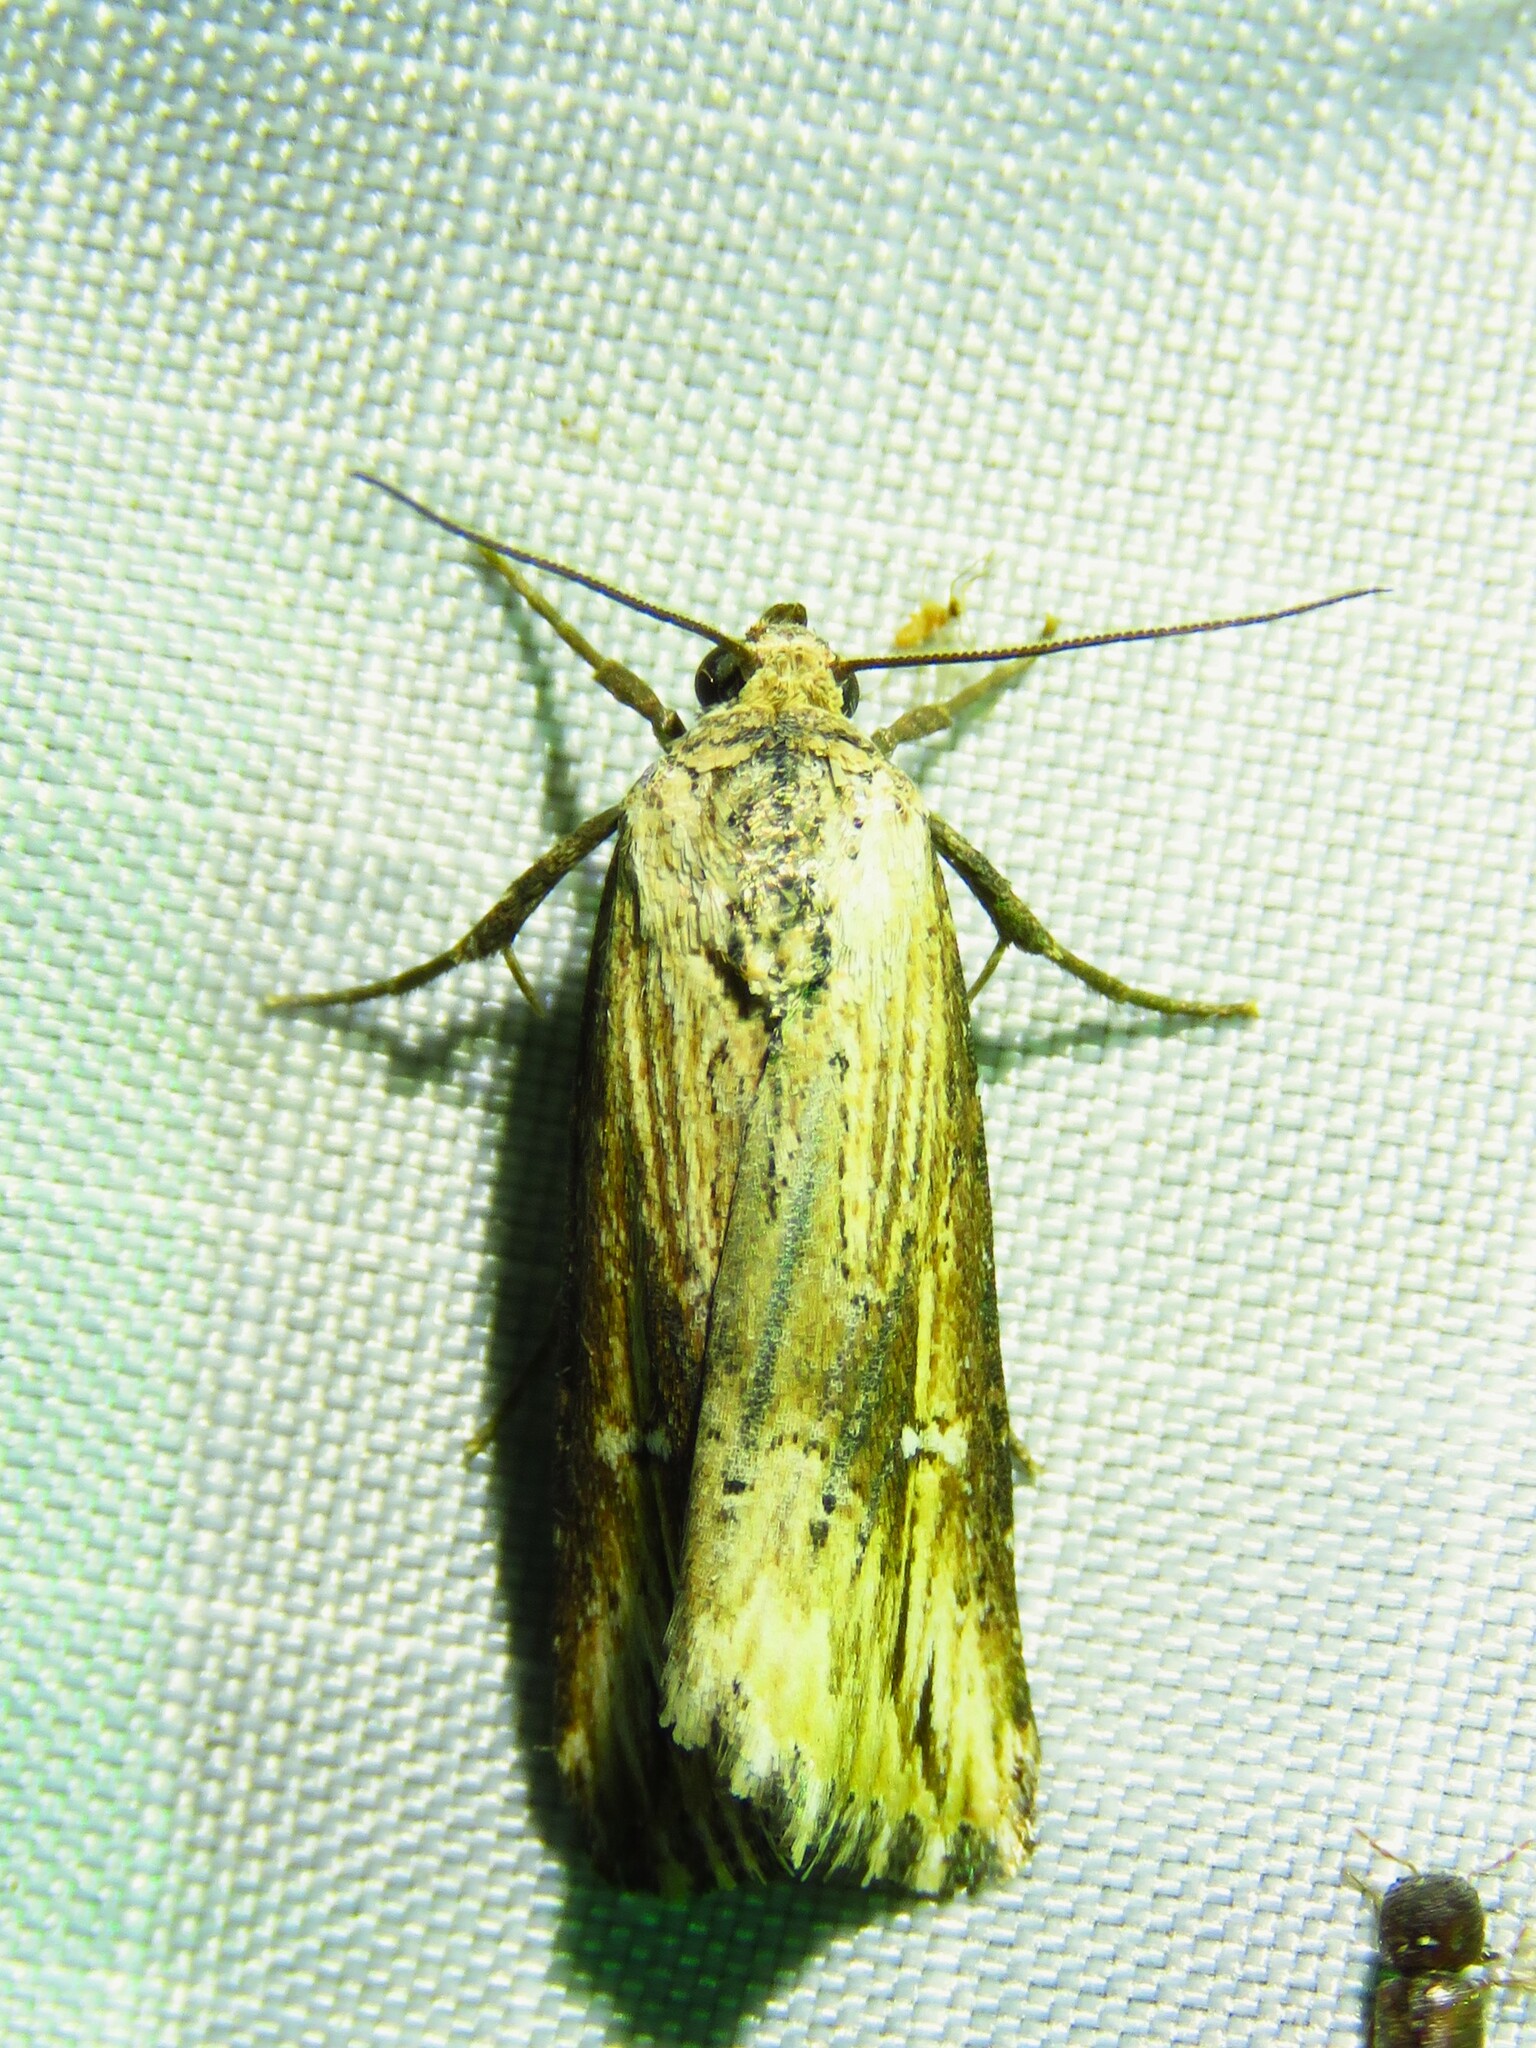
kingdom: Animalia
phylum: Arthropoda
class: Insecta
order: Lepidoptera
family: Noctuidae
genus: Crambodes
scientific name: Crambodes talidiformis
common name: Verbena moth
